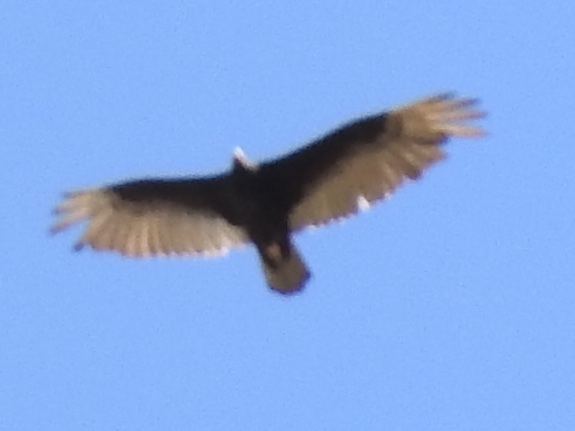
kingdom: Animalia
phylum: Chordata
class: Aves
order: Accipitriformes
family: Cathartidae
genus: Cathartes
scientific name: Cathartes aura
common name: Turkey vulture
